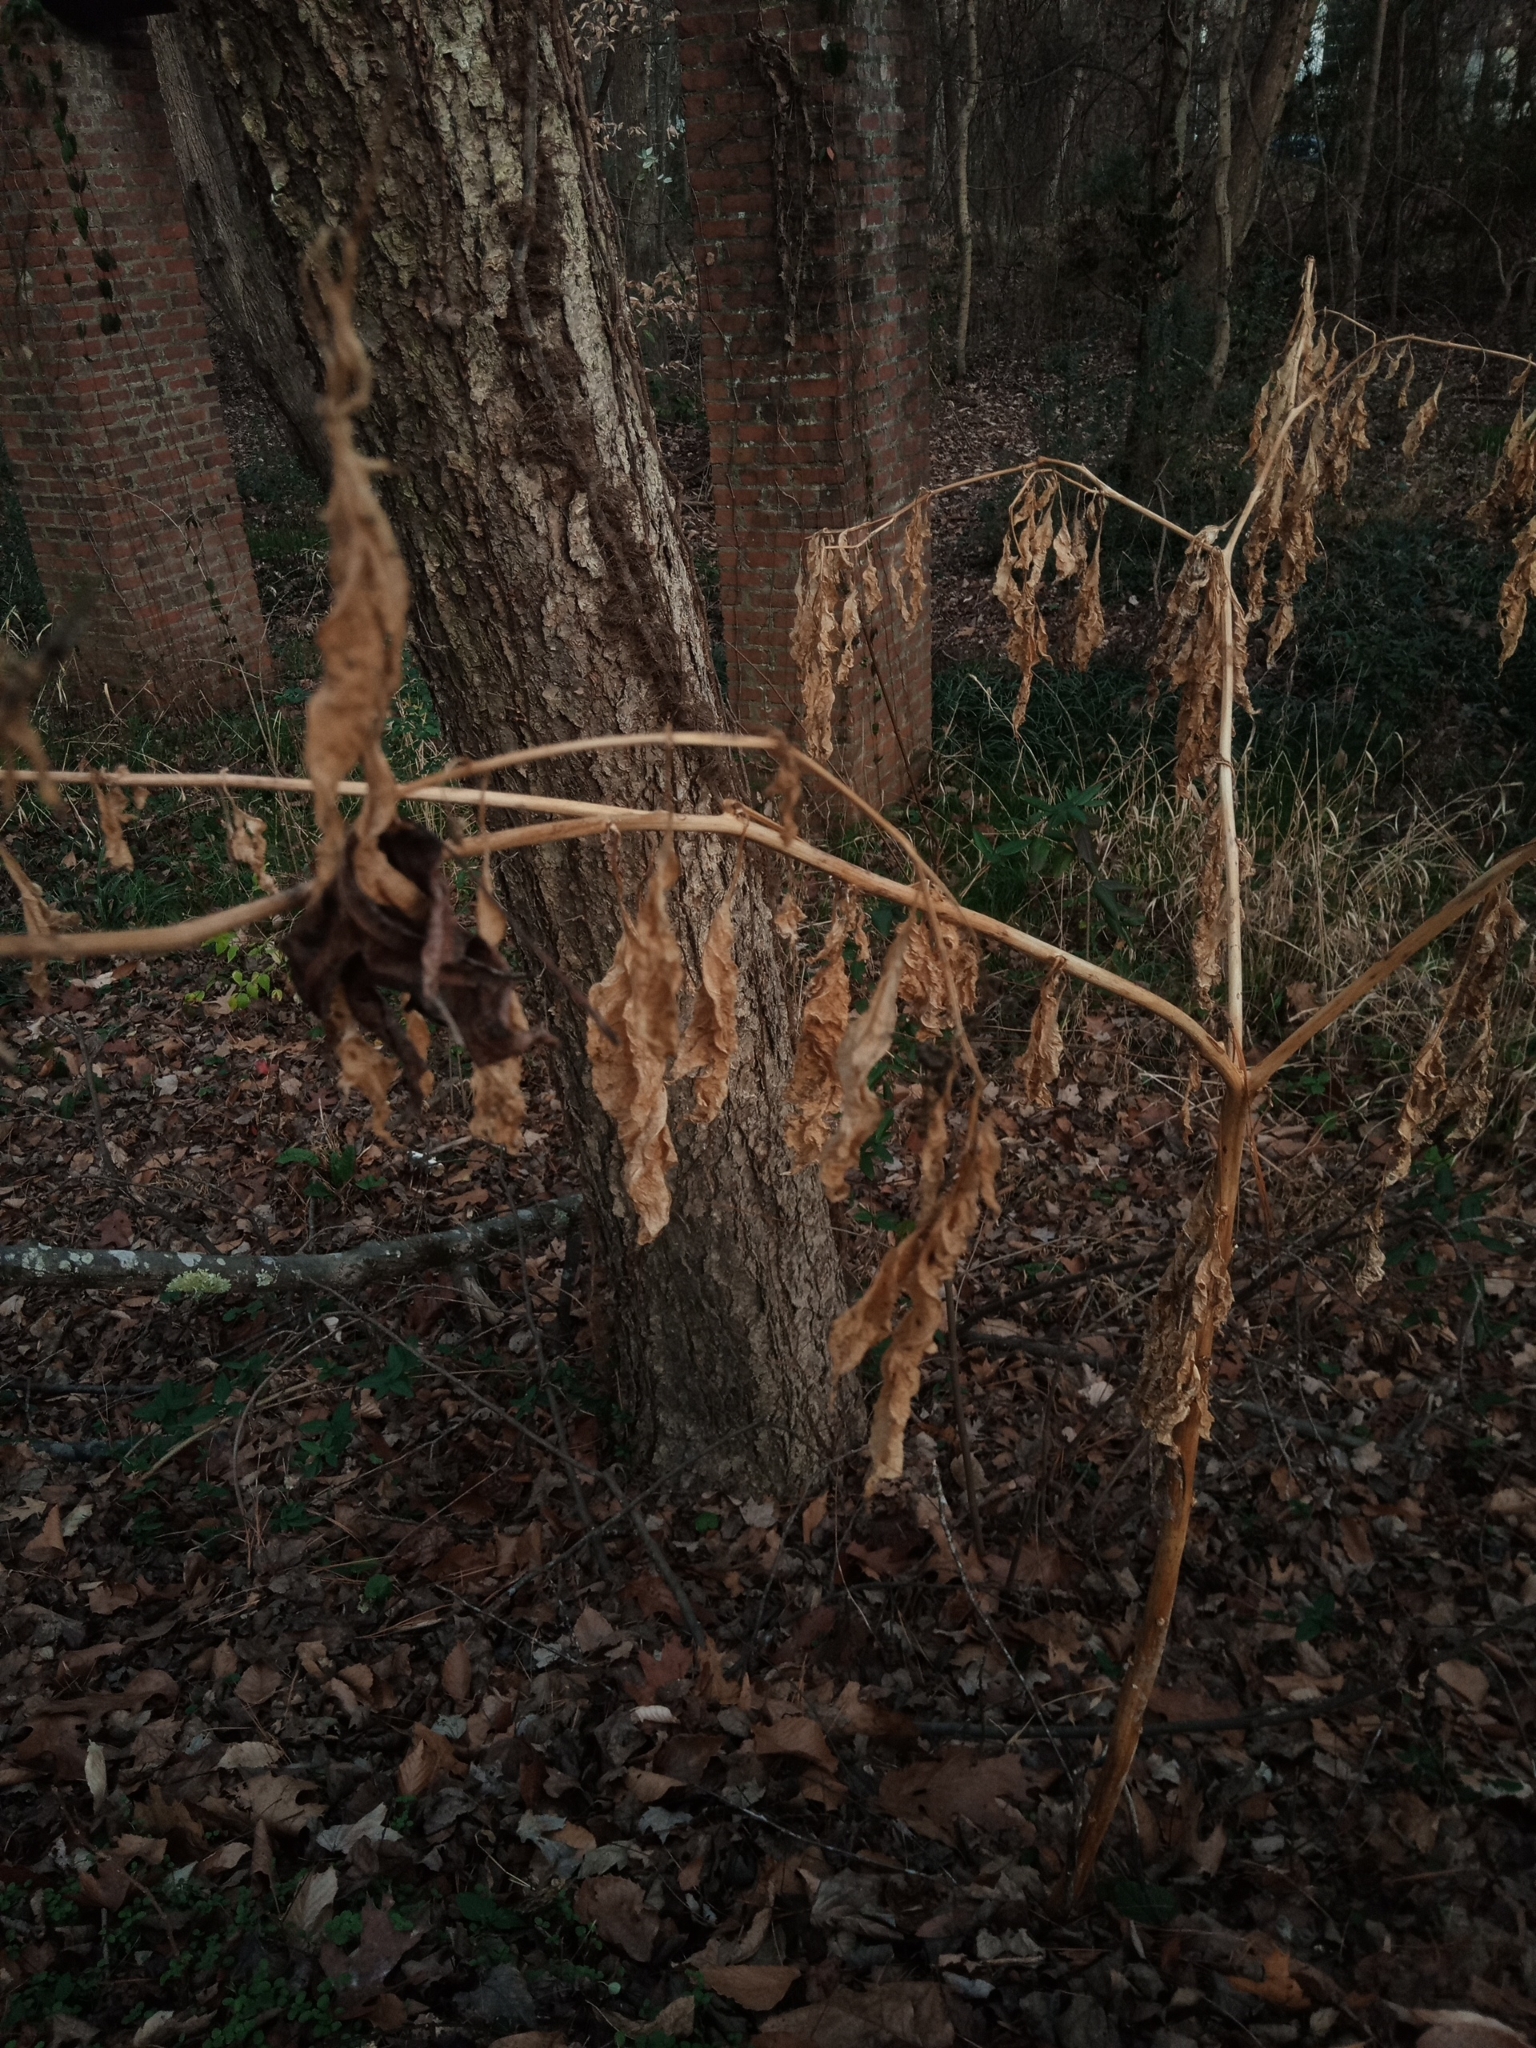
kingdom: Plantae
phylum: Tracheophyta
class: Magnoliopsida
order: Caryophyllales
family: Phytolaccaceae
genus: Phytolacca
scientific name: Phytolacca americana
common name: American pokeweed
